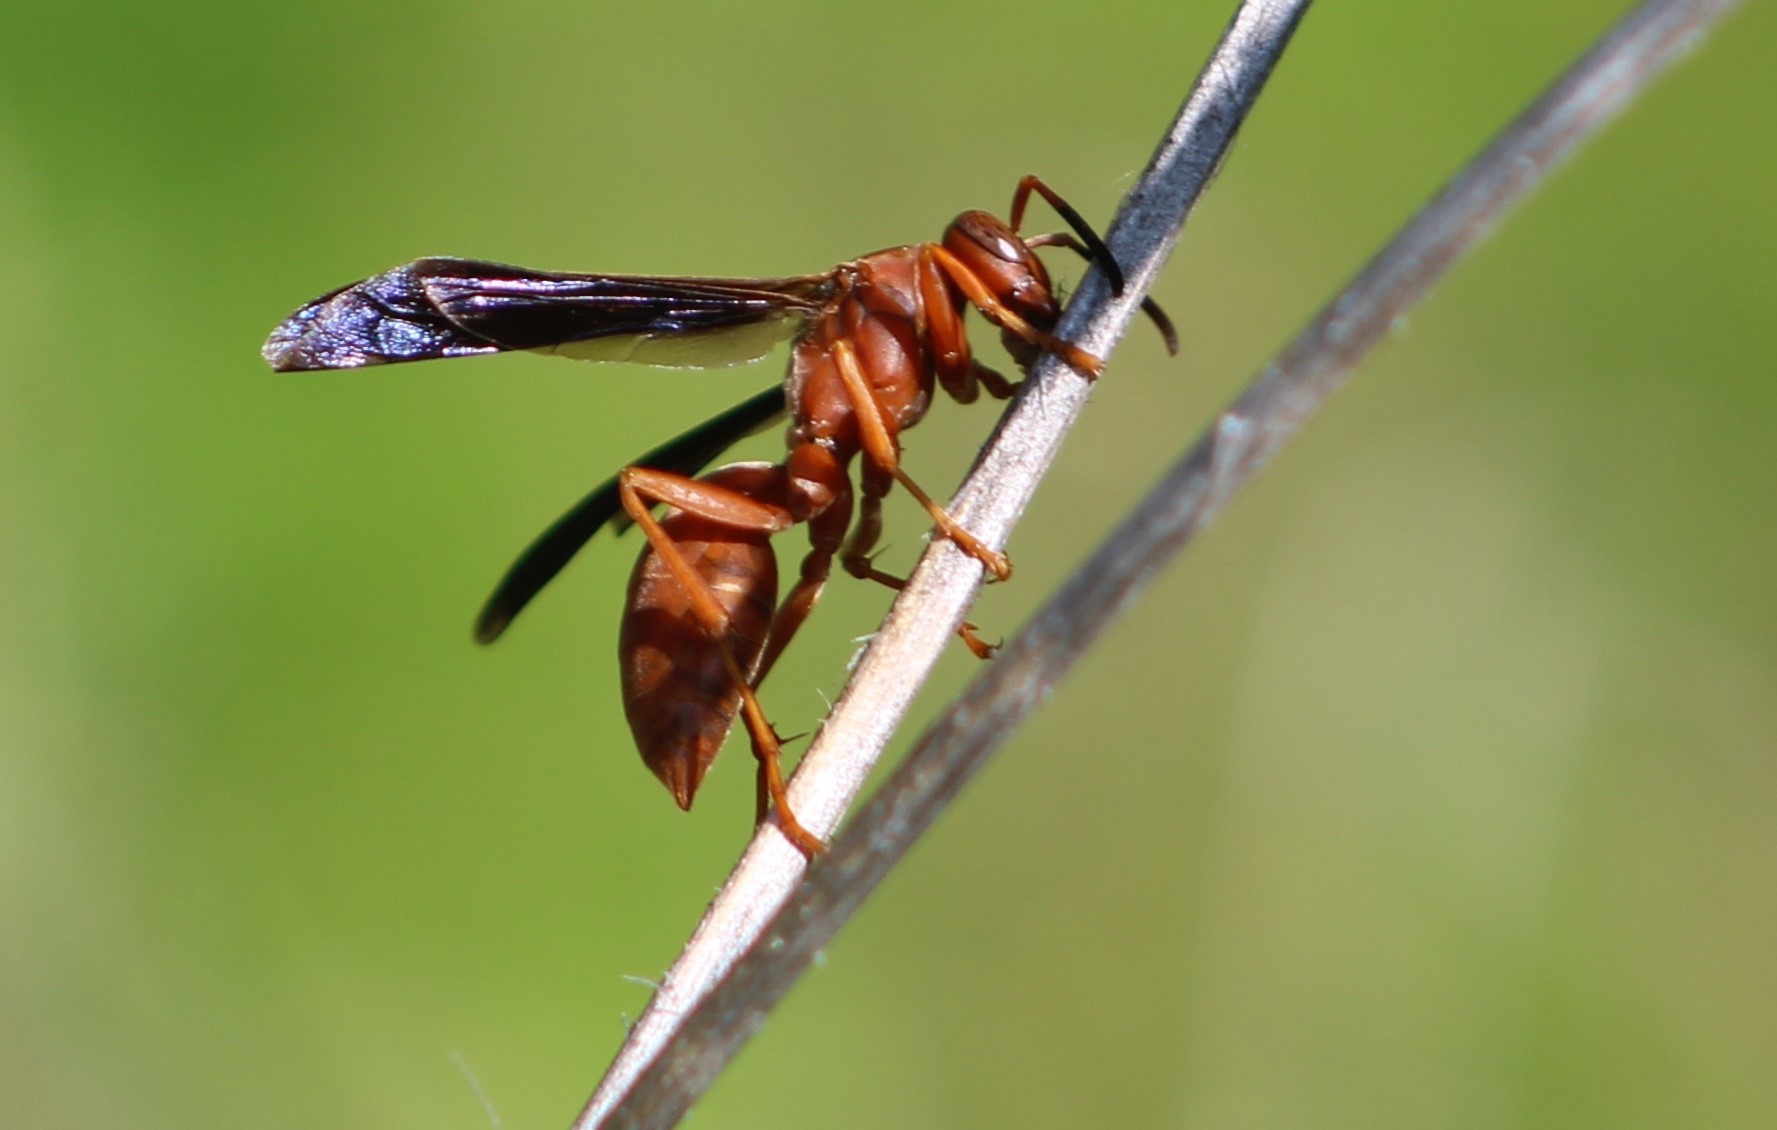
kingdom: Animalia
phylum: Arthropoda
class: Insecta
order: Hymenoptera
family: Vespidae
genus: Fuscopolistes
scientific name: Fuscopolistes
